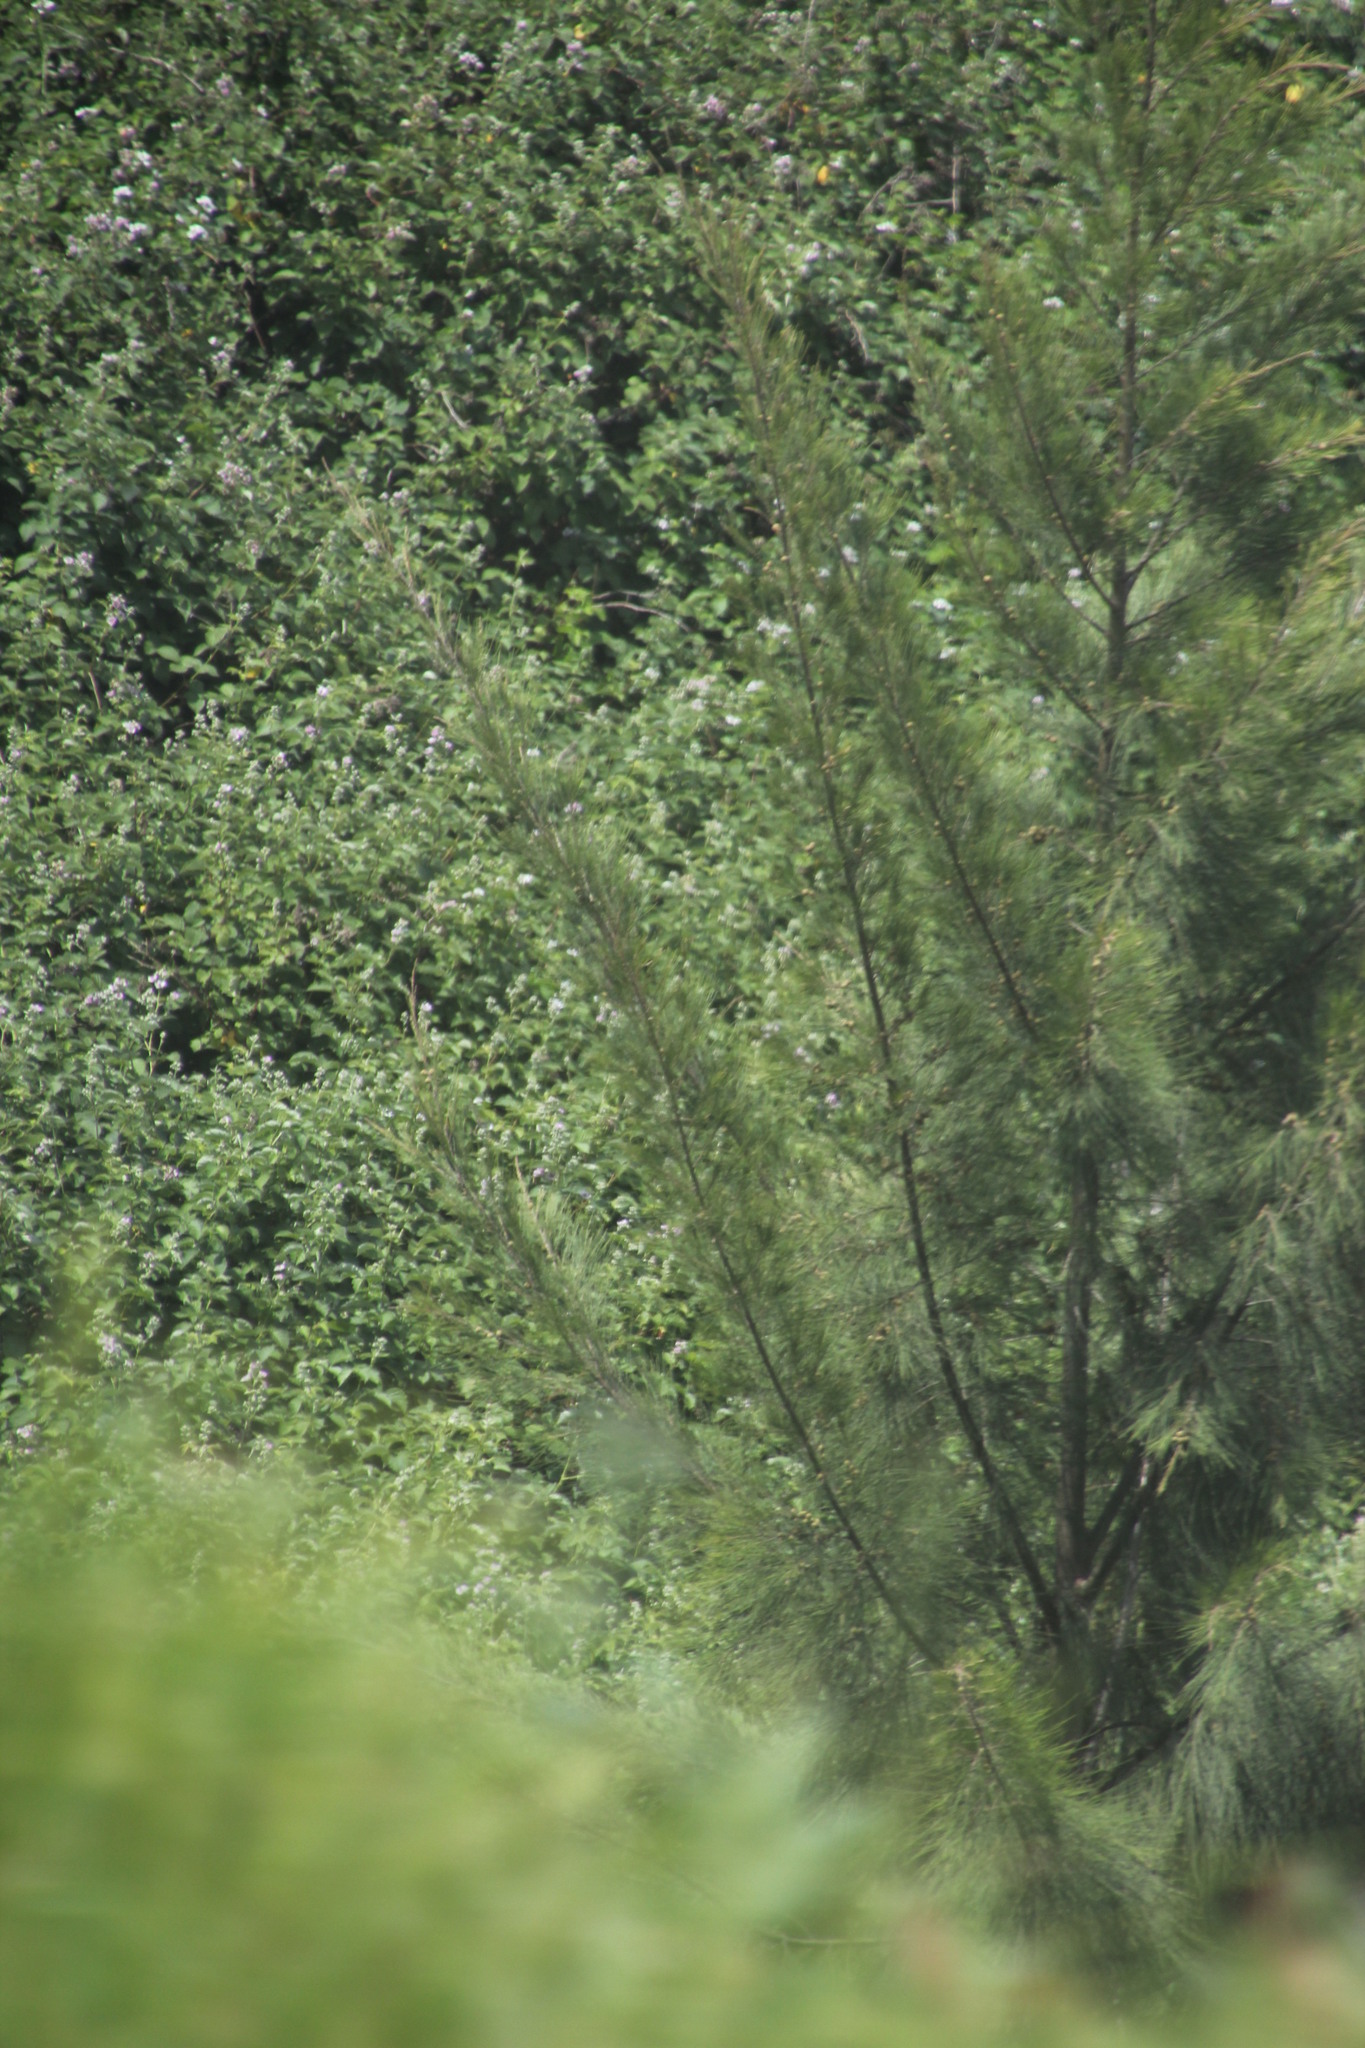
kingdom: Plantae
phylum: Tracheophyta
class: Magnoliopsida
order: Fagales
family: Casuarinaceae
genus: Casuarina
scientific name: Casuarina cunninghamiana
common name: River sheoak
